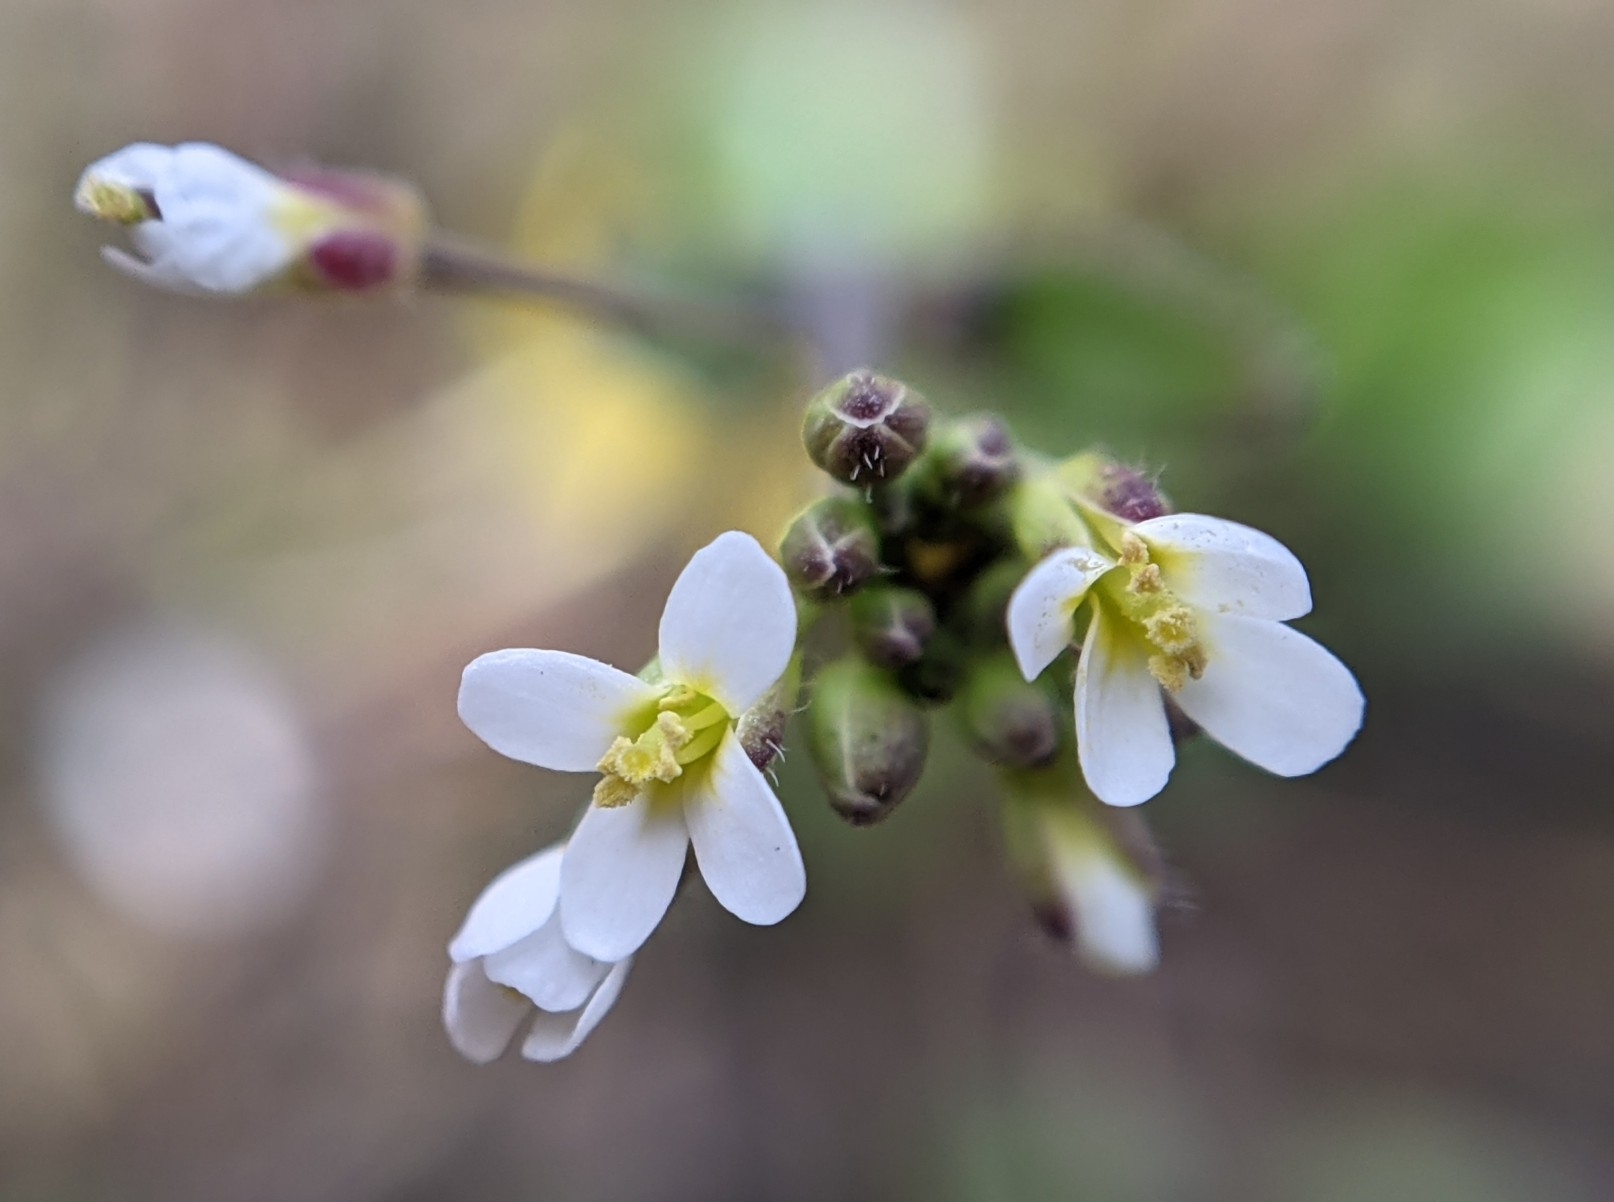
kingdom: Plantae
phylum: Tracheophyta
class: Magnoliopsida
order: Brassicales
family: Brassicaceae
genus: Arabidopsis
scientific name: Arabidopsis thaliana
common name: Thale cress
